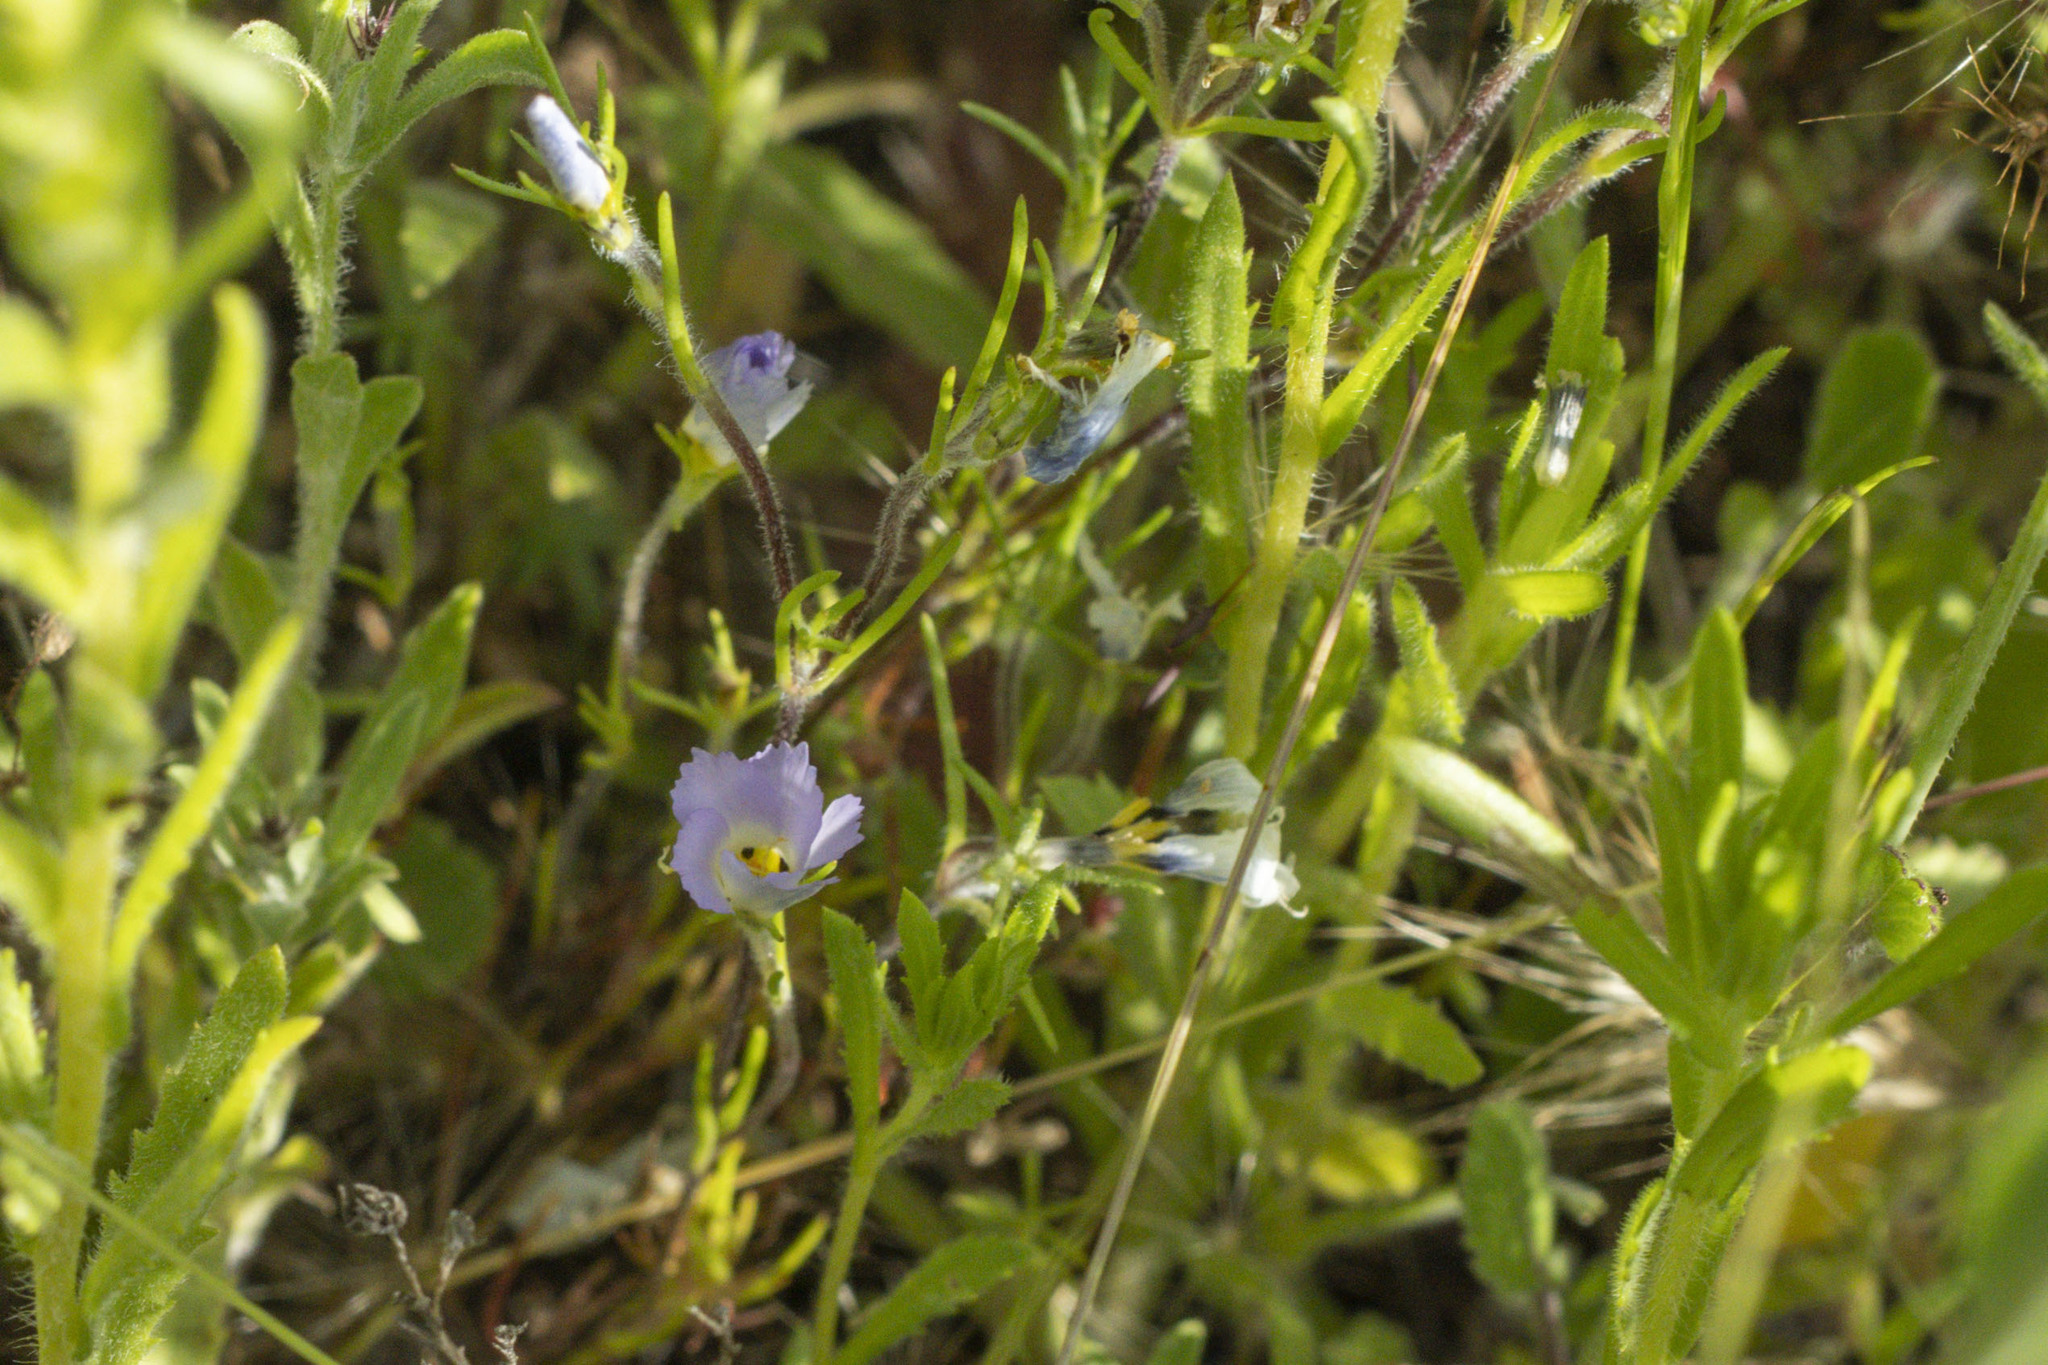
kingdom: Plantae
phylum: Tracheophyta
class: Magnoliopsida
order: Ericales
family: Polemoniaceae
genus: Linanthus
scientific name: Linanthus dianthiflorus
